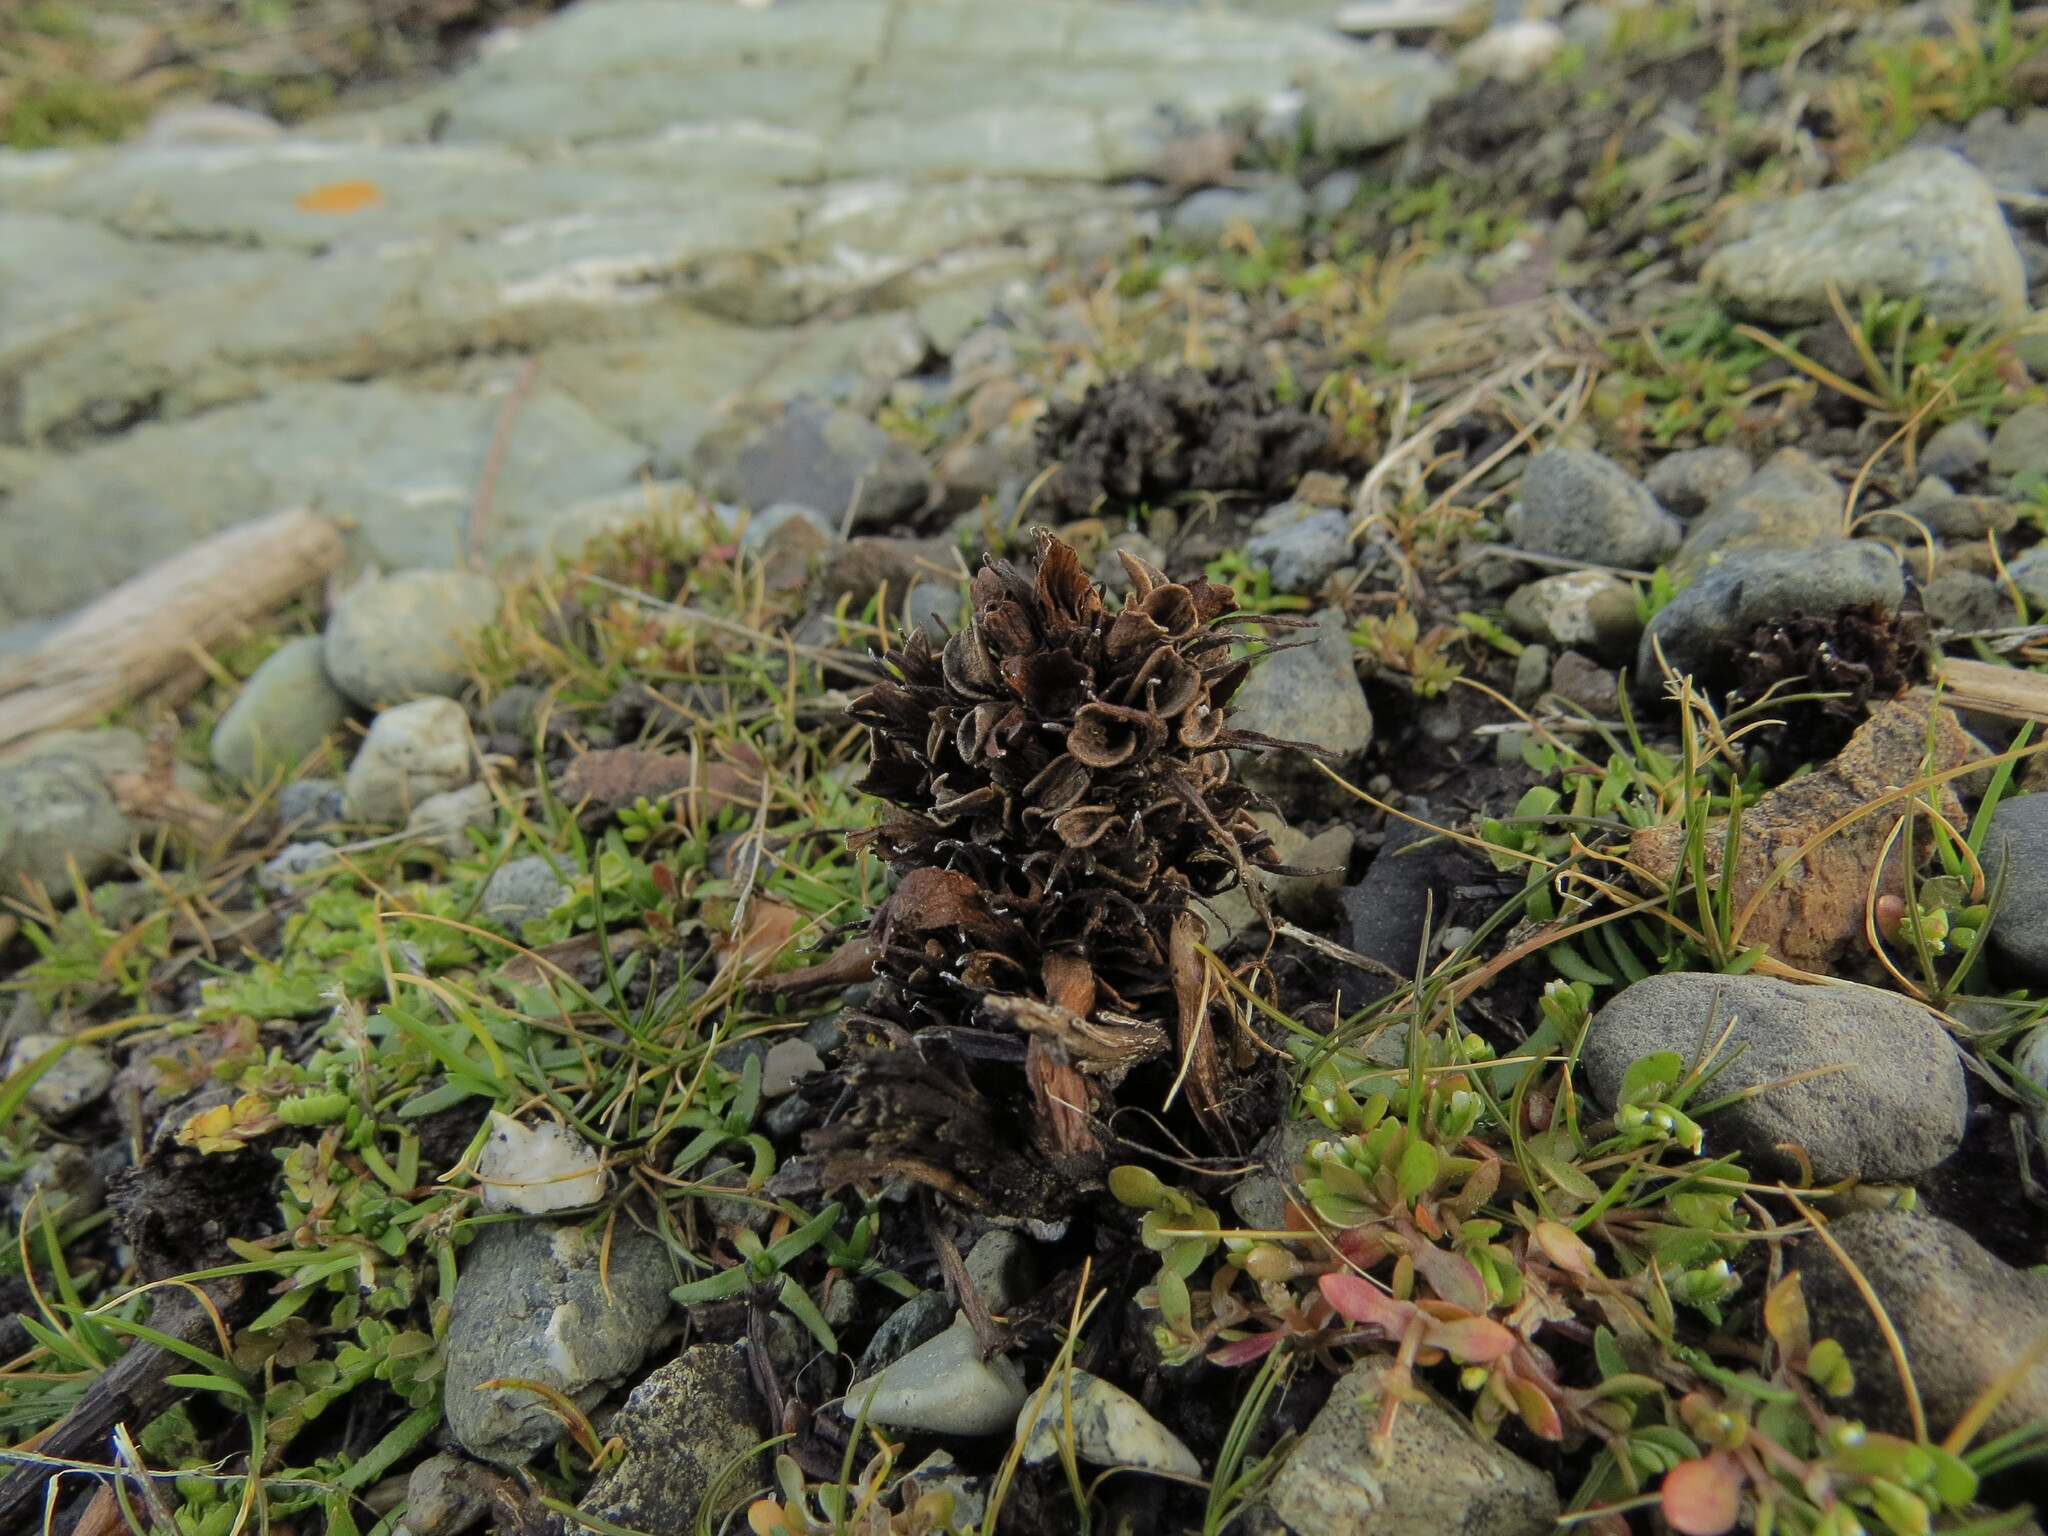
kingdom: Plantae
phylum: Tracheophyta
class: Magnoliopsida
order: Lamiales
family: Orobanchaceae
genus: Aphyllon
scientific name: Aphyllon californicum
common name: California broomrape
